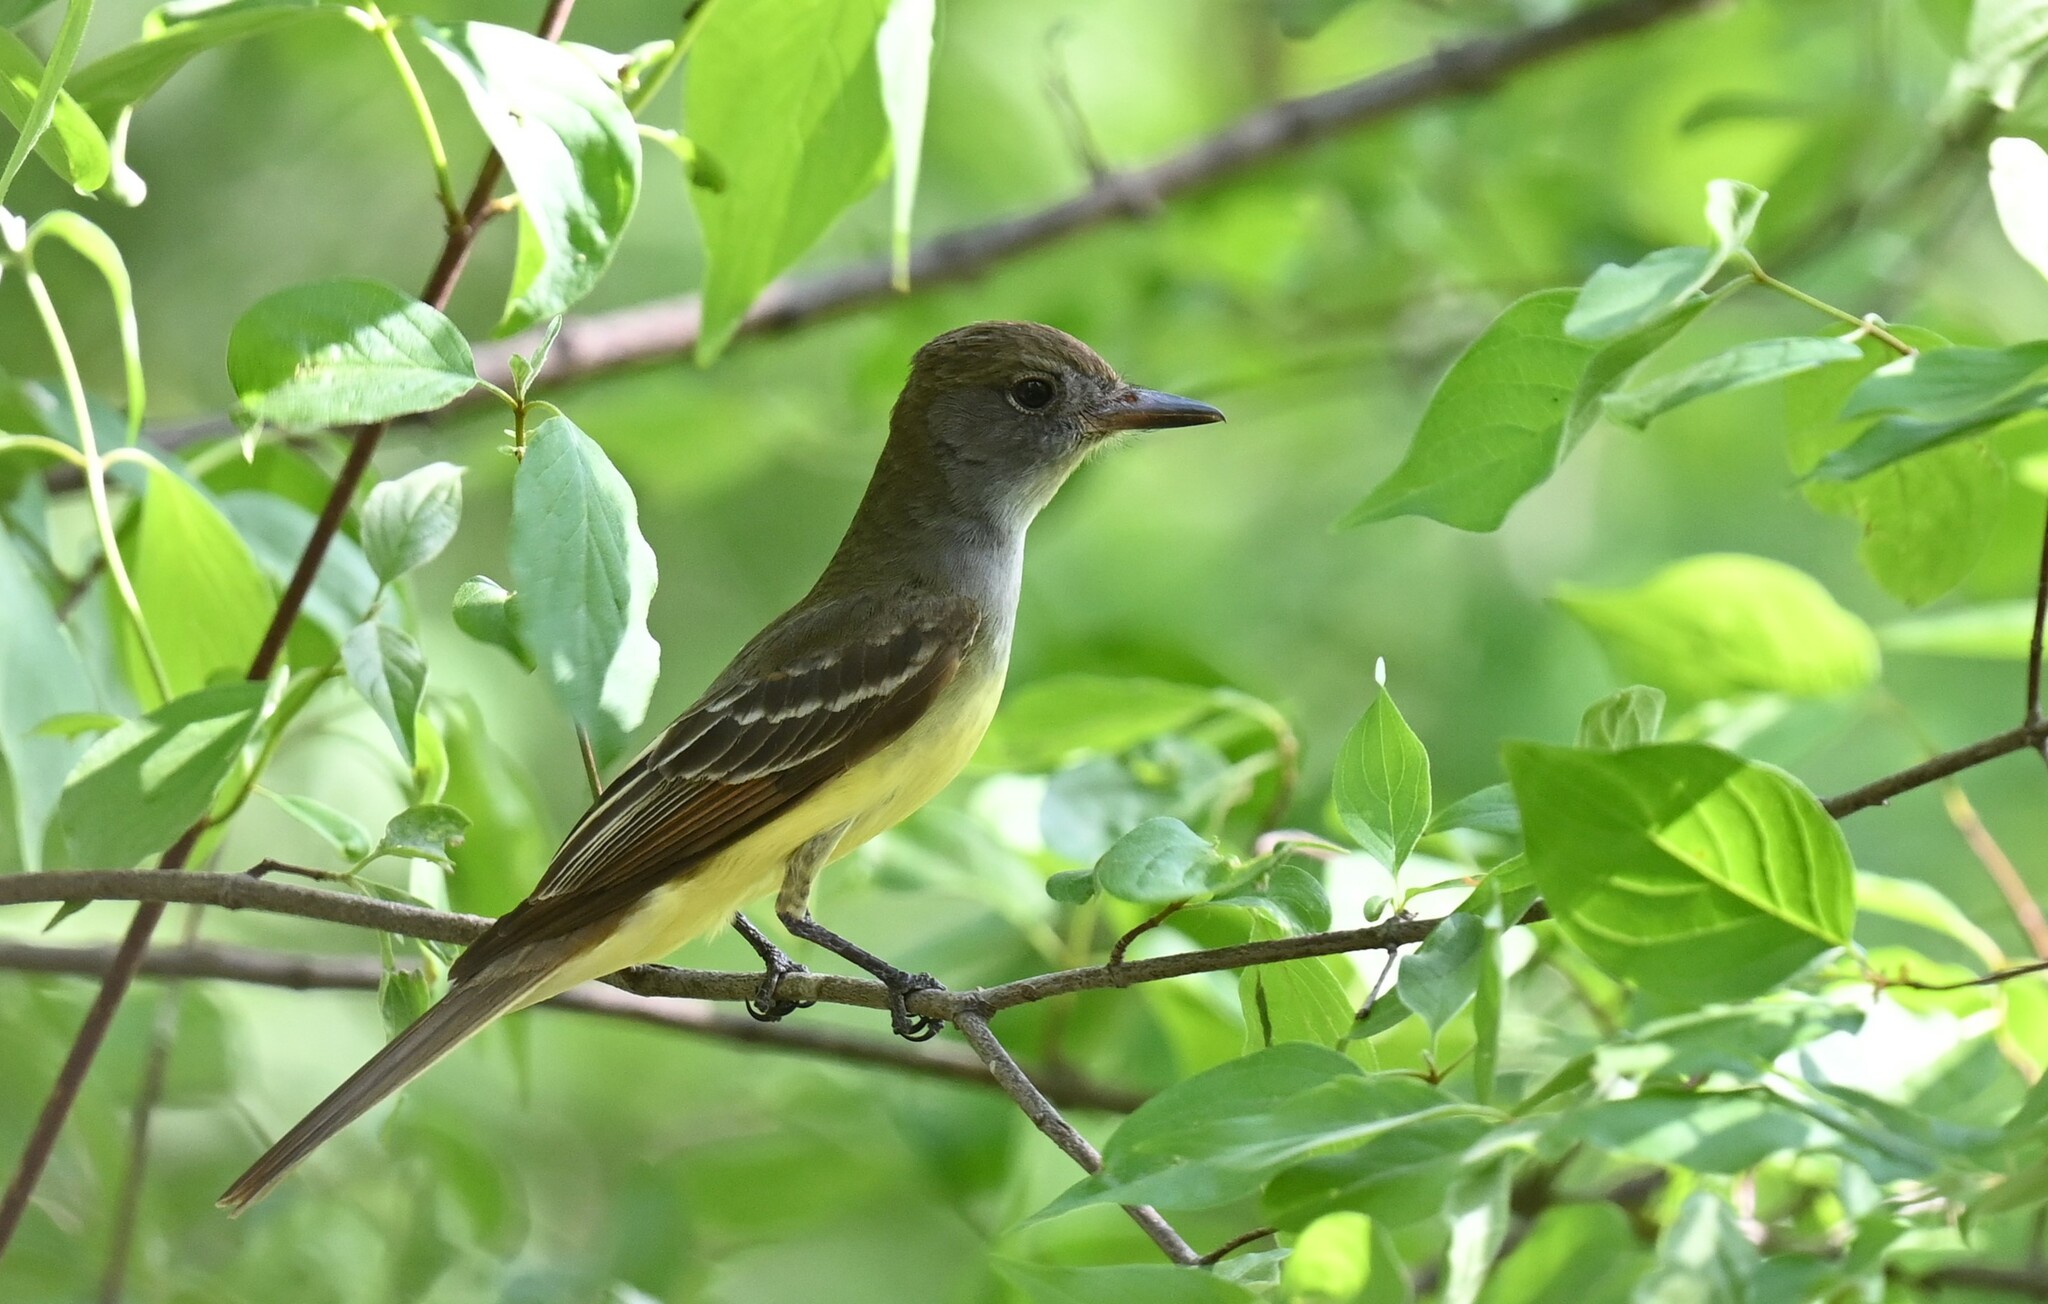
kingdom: Animalia
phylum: Chordata
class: Aves
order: Passeriformes
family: Tyrannidae
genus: Myiarchus
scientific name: Myiarchus crinitus
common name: Great crested flycatcher
